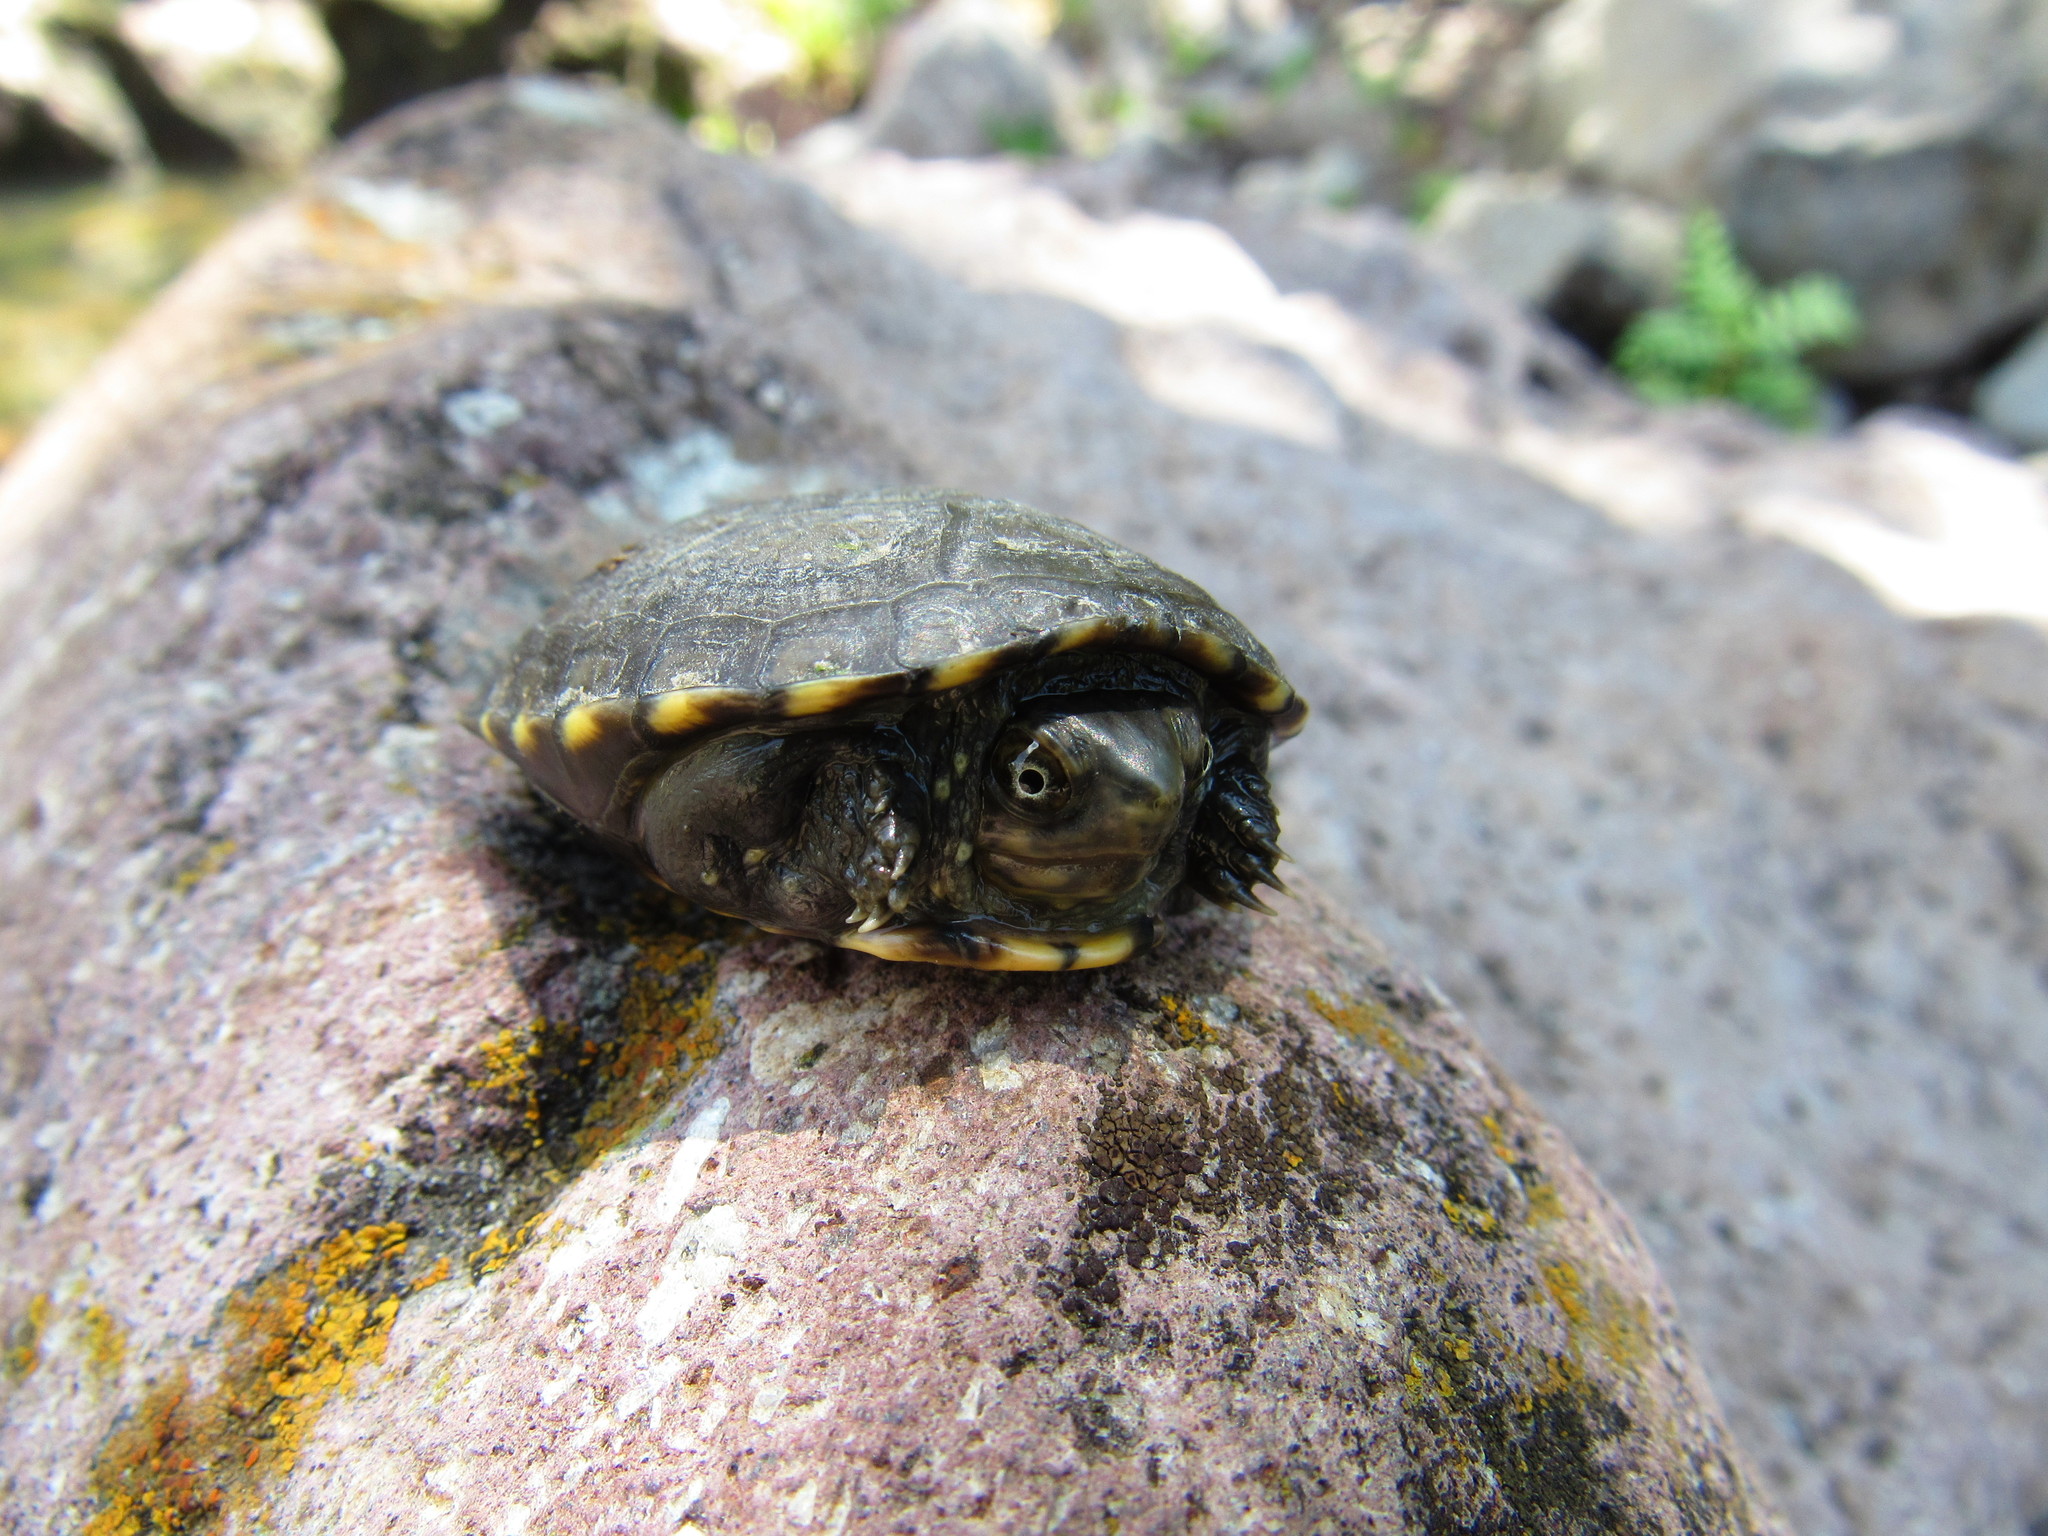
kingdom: Animalia
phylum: Chordata
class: Testudines
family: Kinosternidae
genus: Kinosternon
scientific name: Kinosternon integrum
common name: Mexican mud turtle
